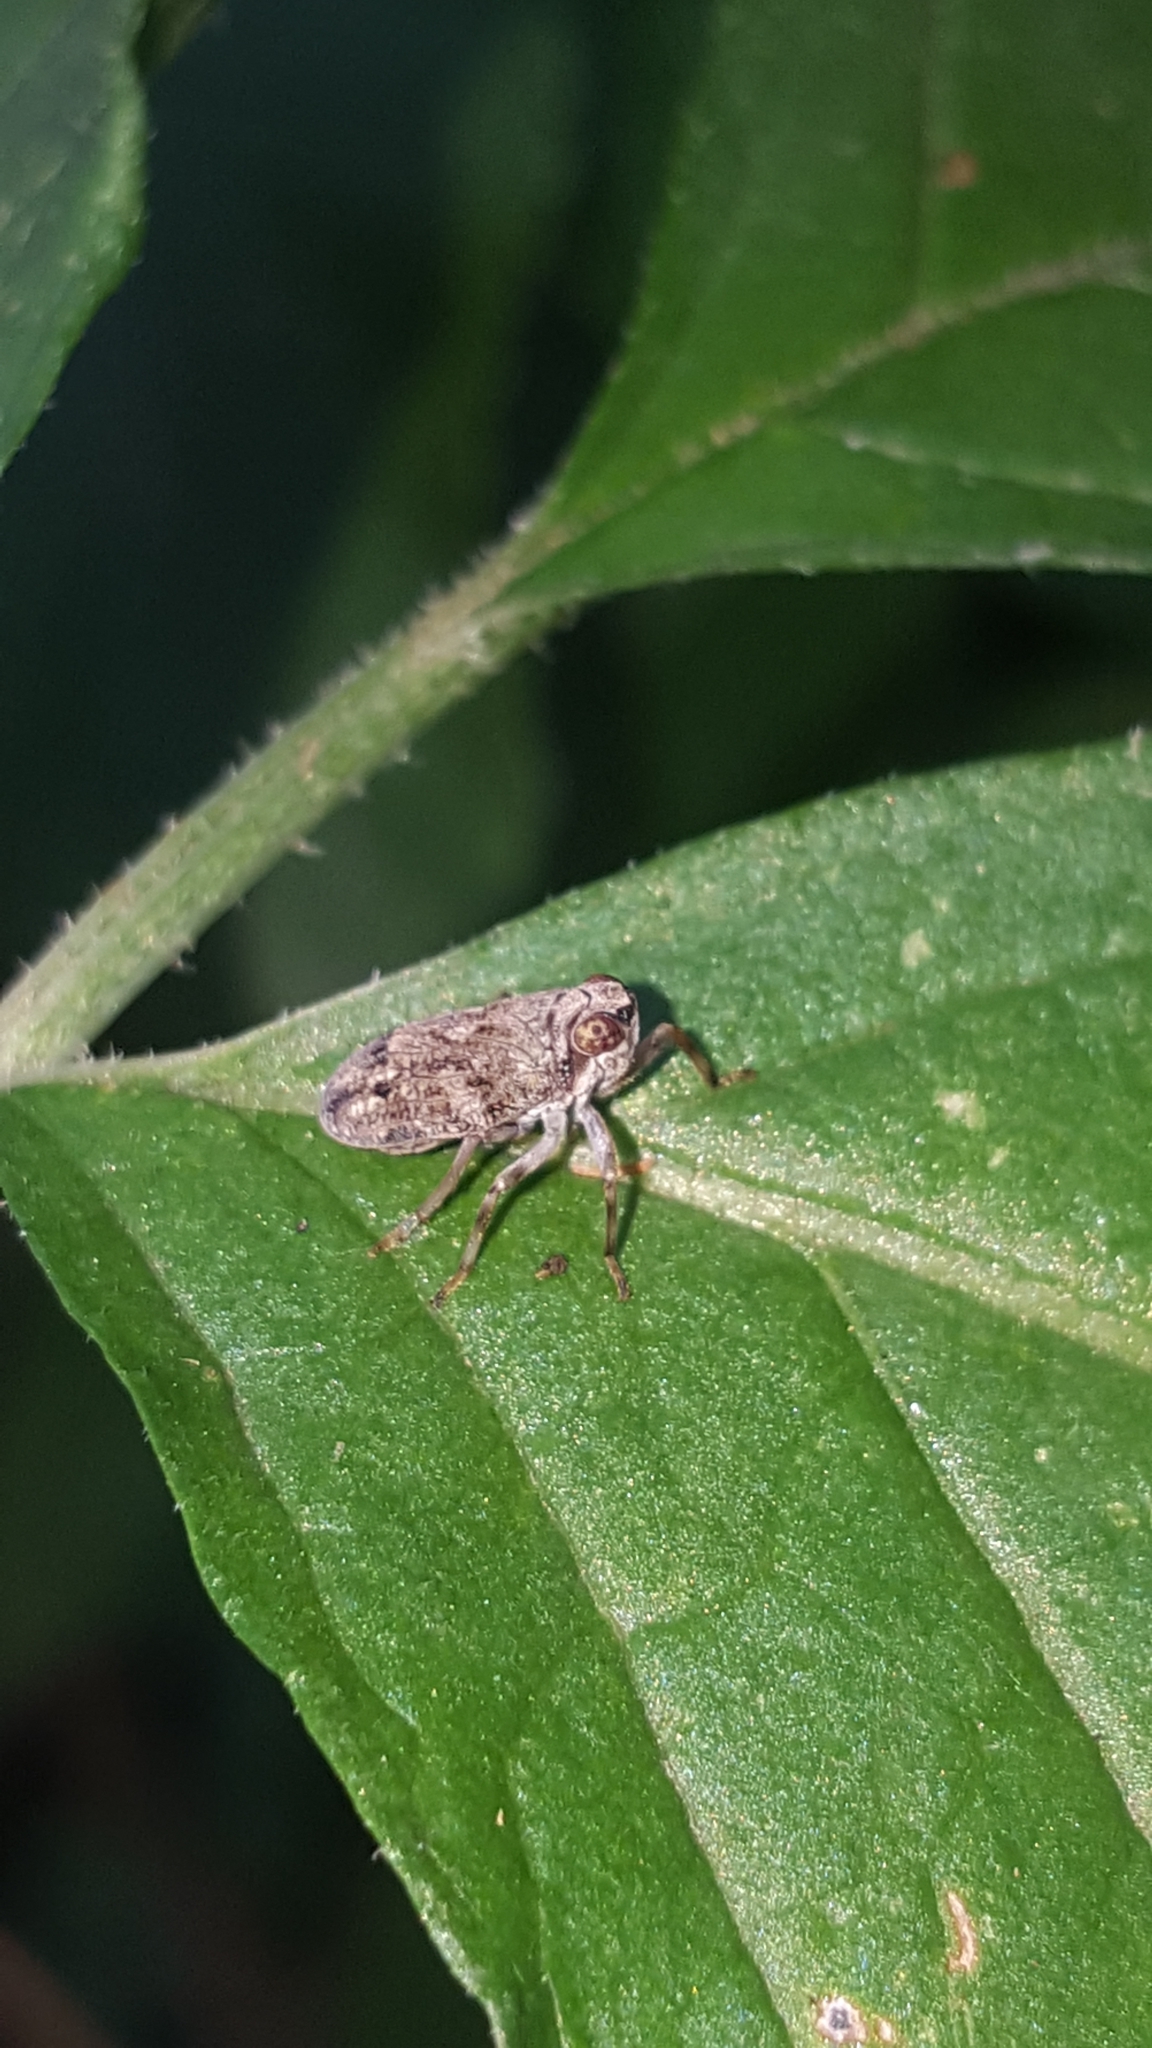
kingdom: Animalia
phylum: Arthropoda
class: Insecta
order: Hemiptera
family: Issidae
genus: Issus
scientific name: Issus coleoptratus
